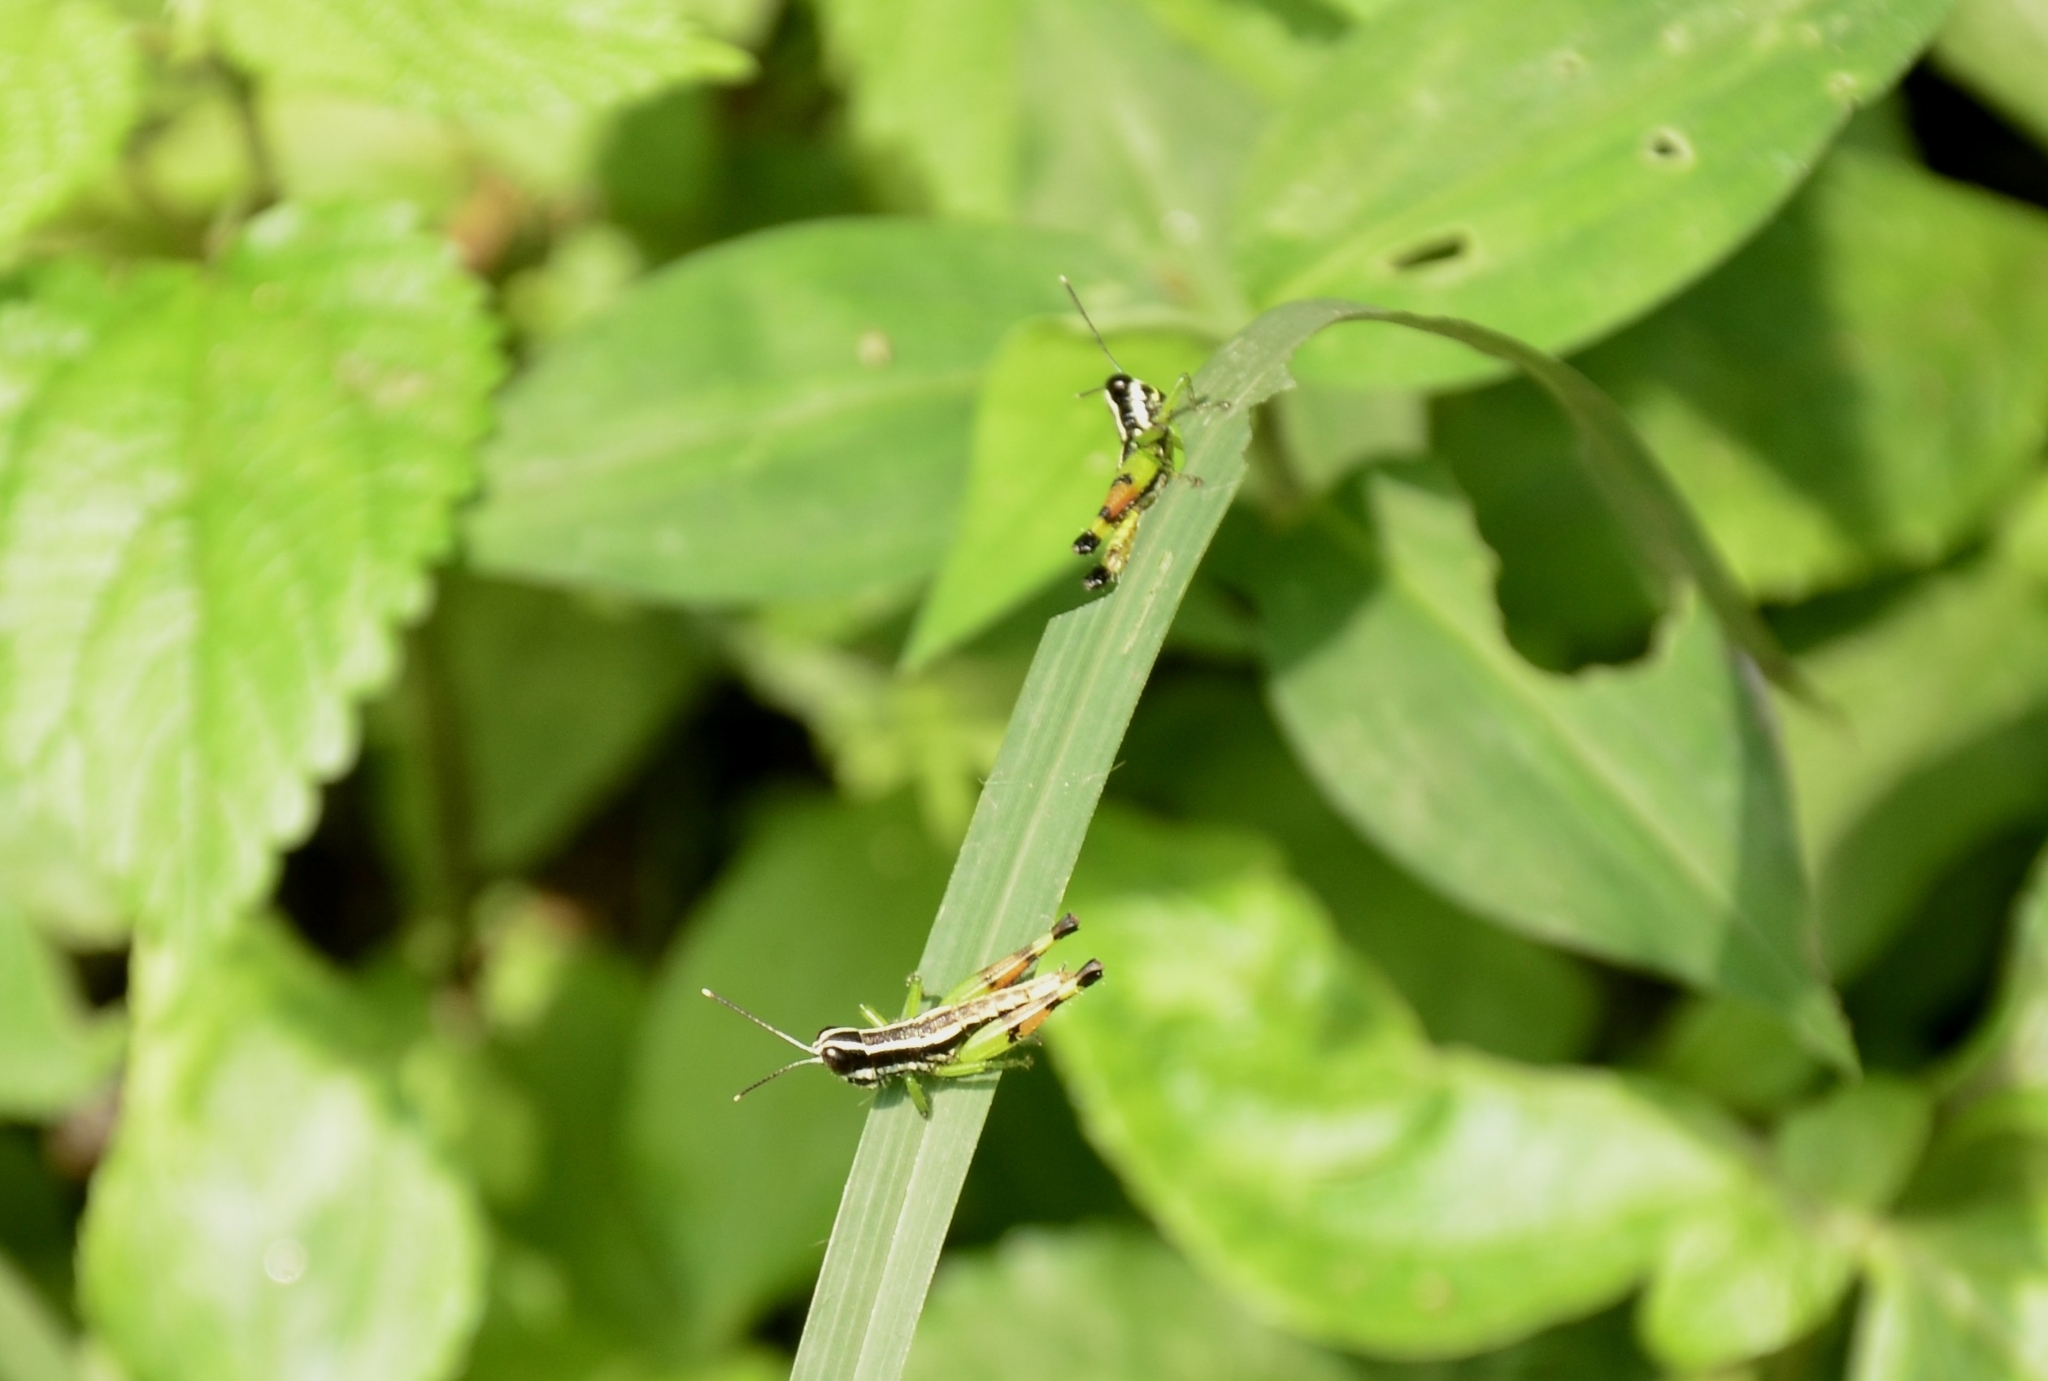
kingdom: Animalia
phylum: Arthropoda
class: Insecta
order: Orthoptera
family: Acrididae
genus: Chitaura
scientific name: Chitaura indica
